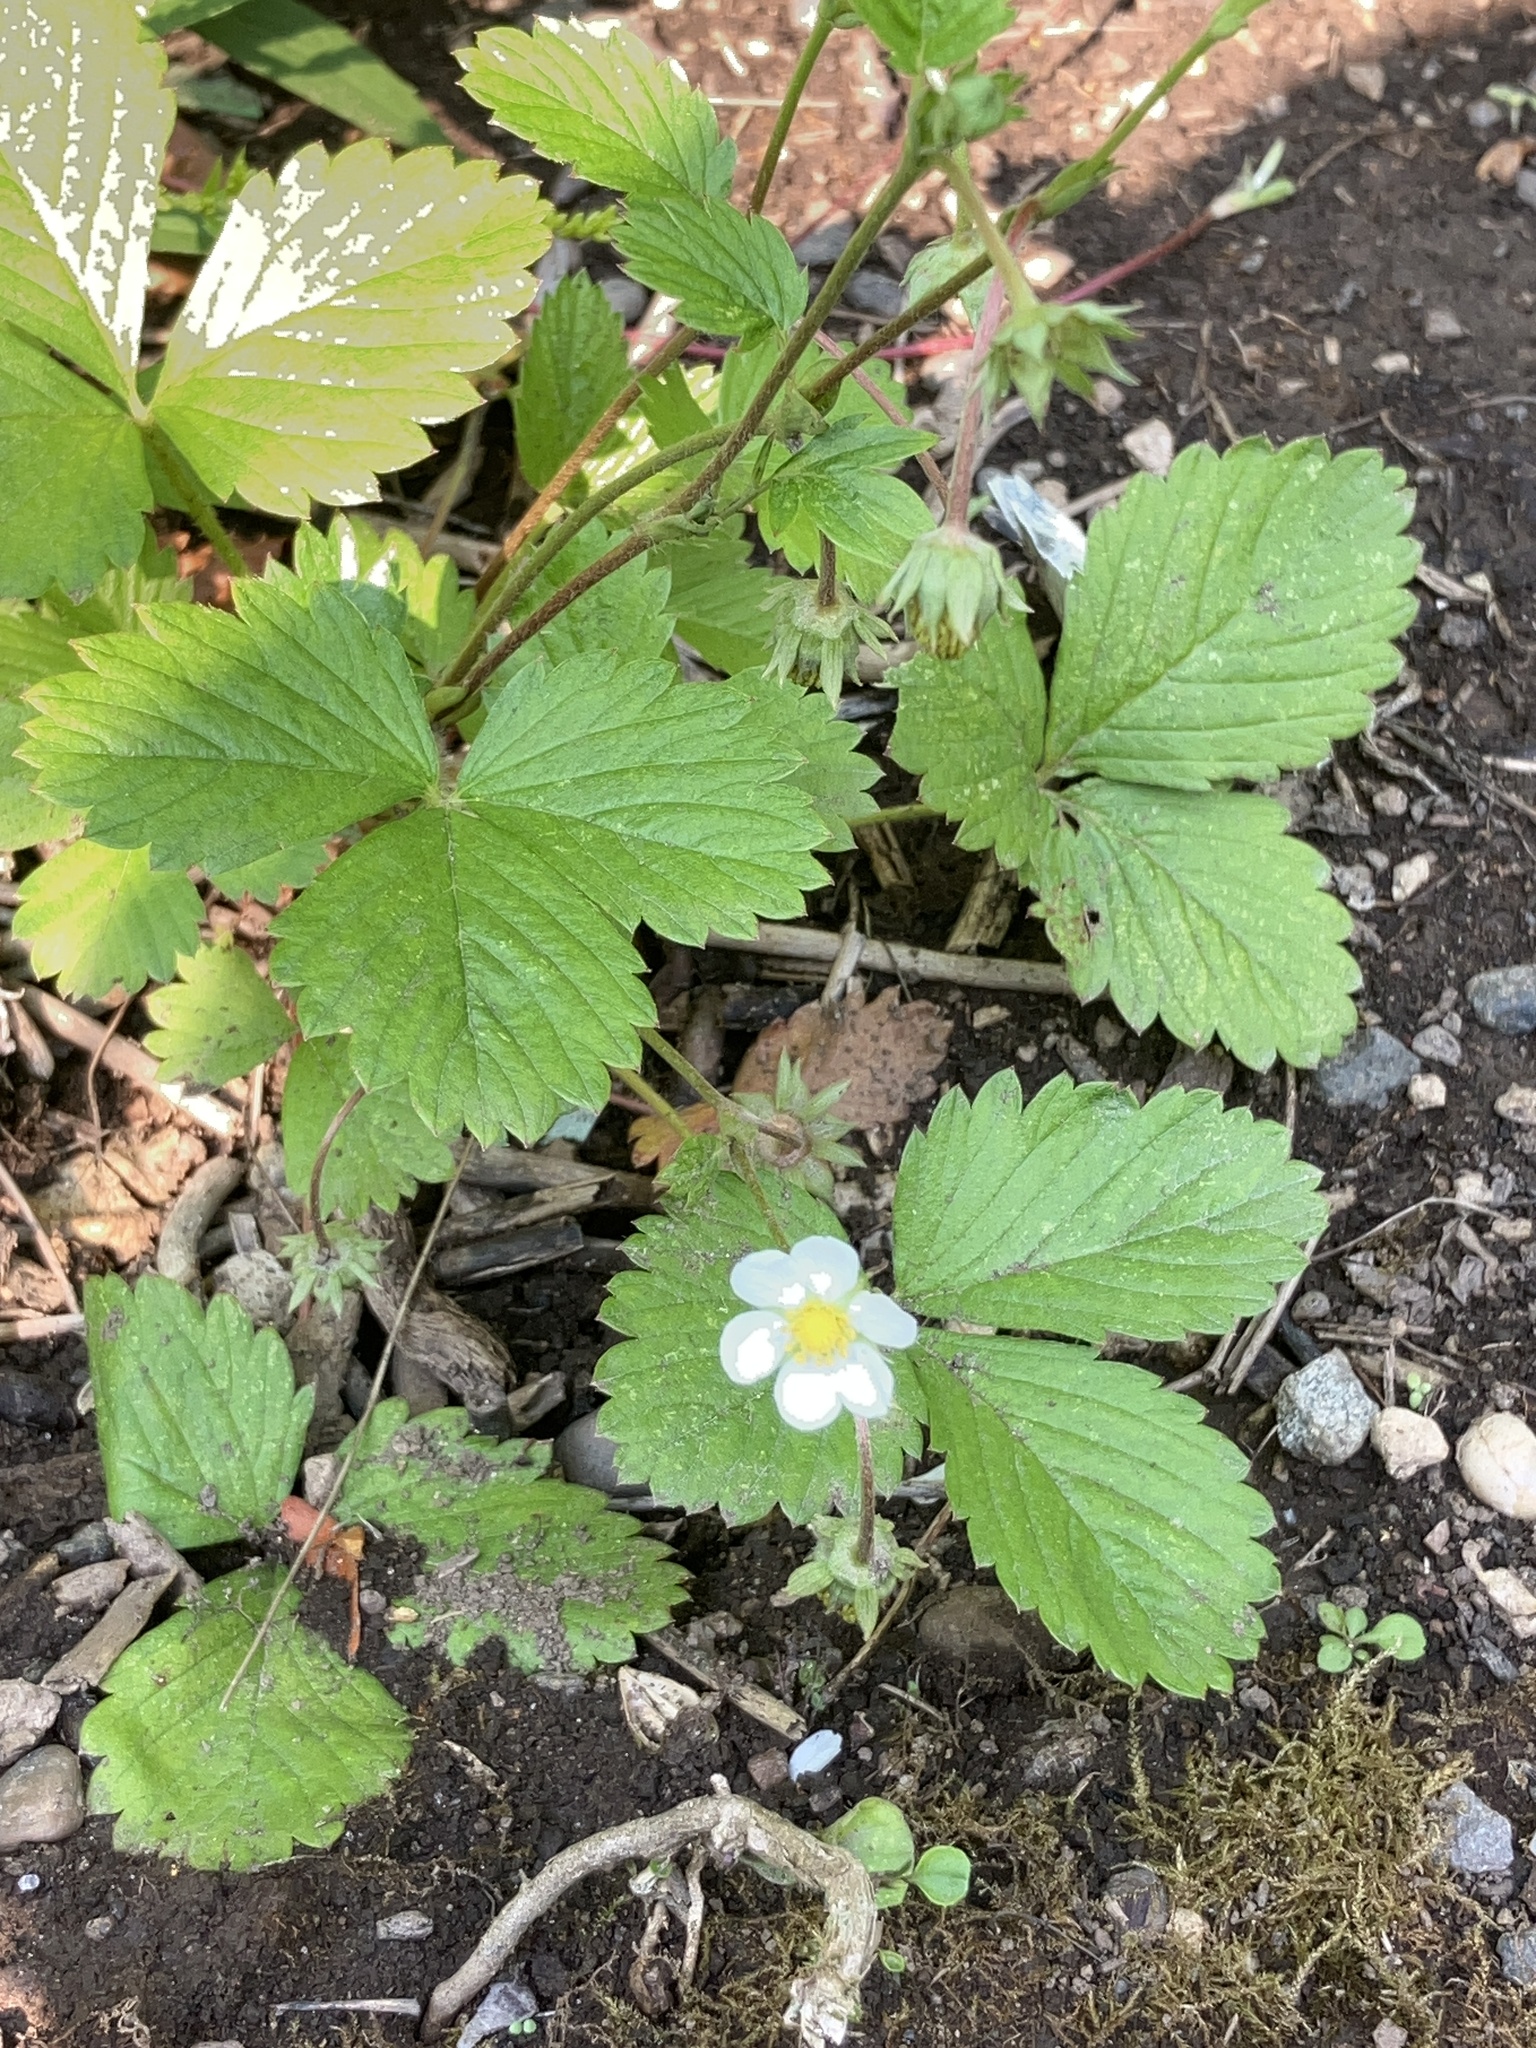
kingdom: Plantae
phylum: Tracheophyta
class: Magnoliopsida
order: Rosales
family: Rosaceae
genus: Fragaria
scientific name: Fragaria vesca
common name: Wild strawberry
